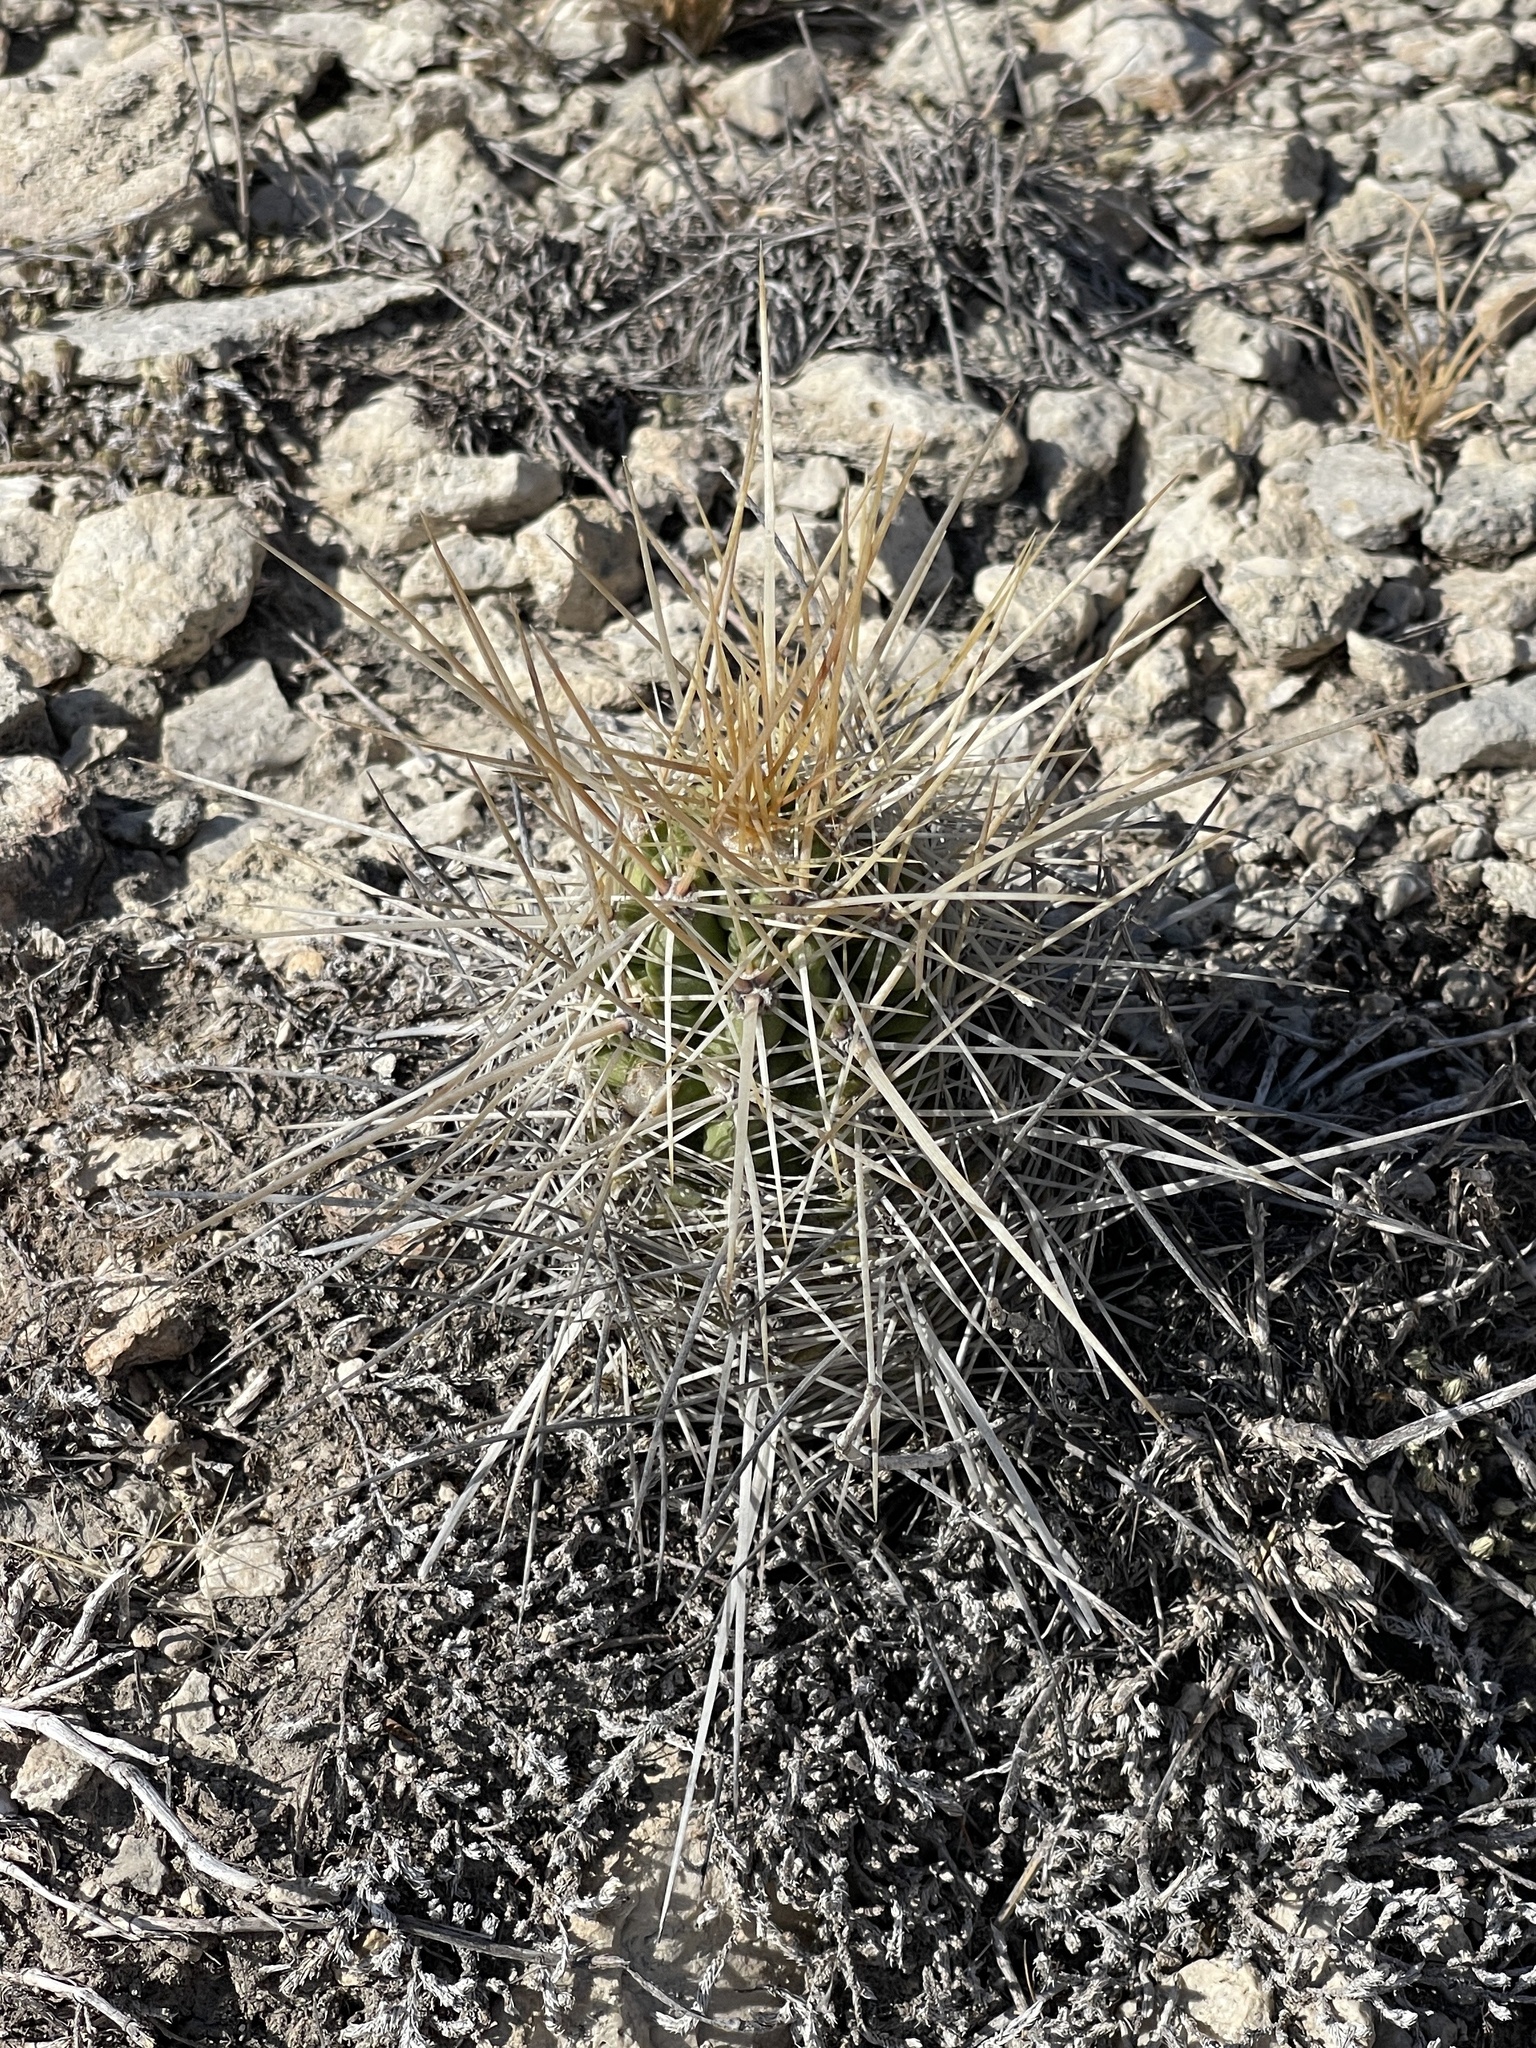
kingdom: Plantae
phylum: Tracheophyta
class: Magnoliopsida
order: Caryophyllales
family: Cactaceae
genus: Echinocereus
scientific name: Echinocereus enneacanthus
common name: Pitaya
